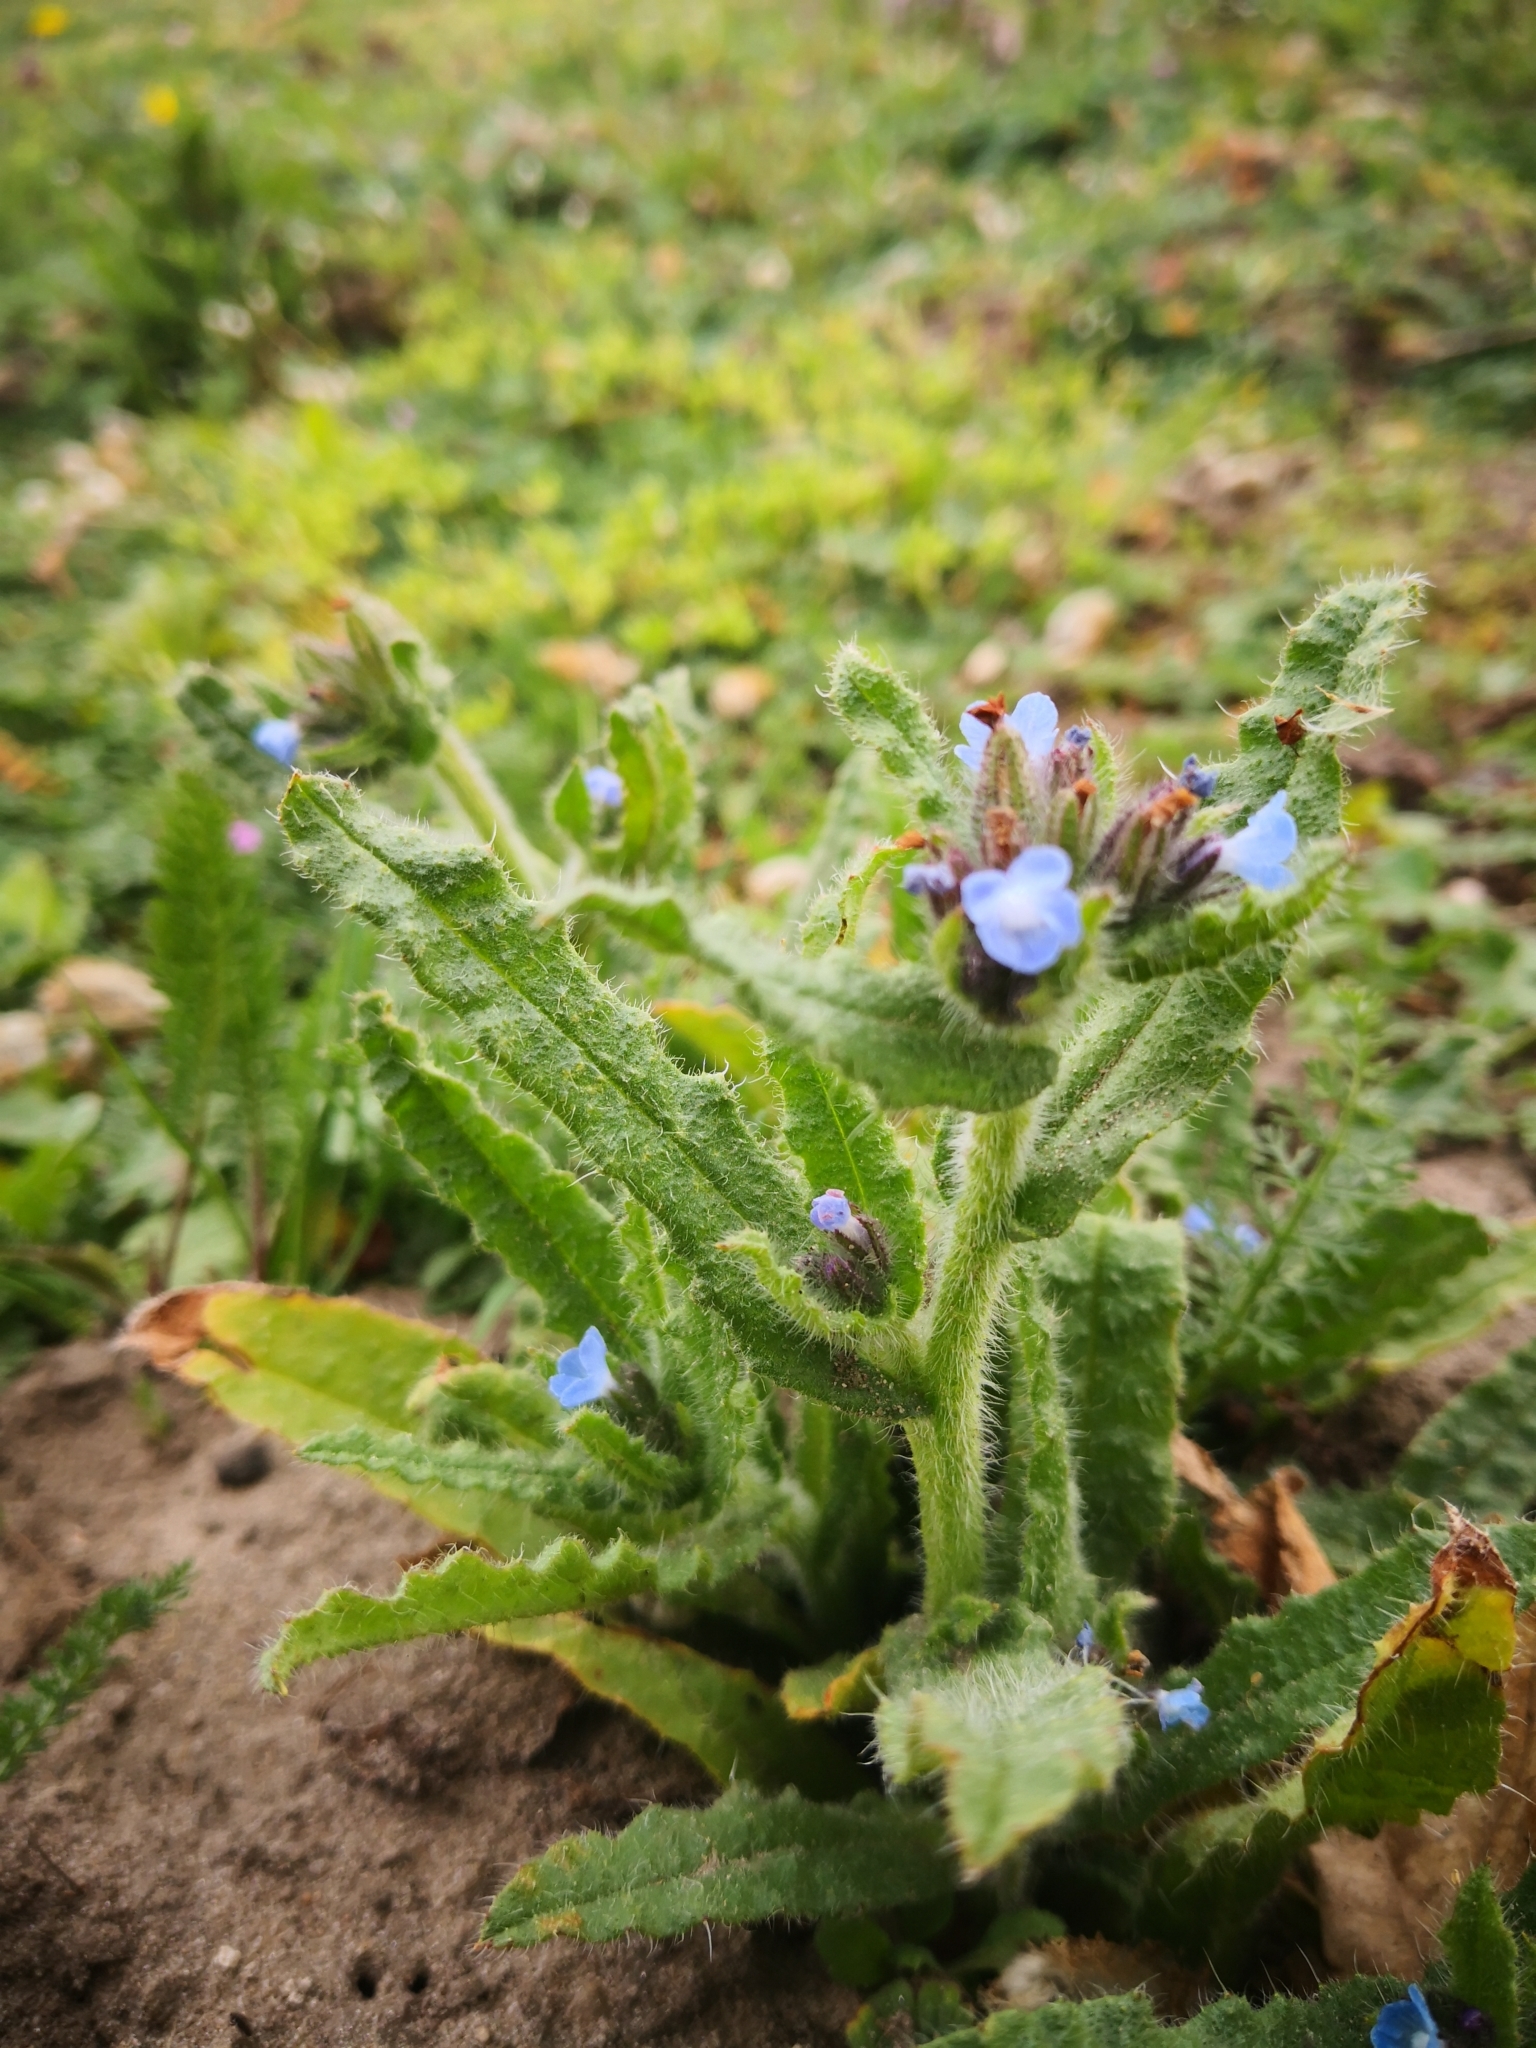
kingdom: Plantae
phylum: Tracheophyta
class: Magnoliopsida
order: Boraginales
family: Boraginaceae
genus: Lycopsis
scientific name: Lycopsis arvensis
